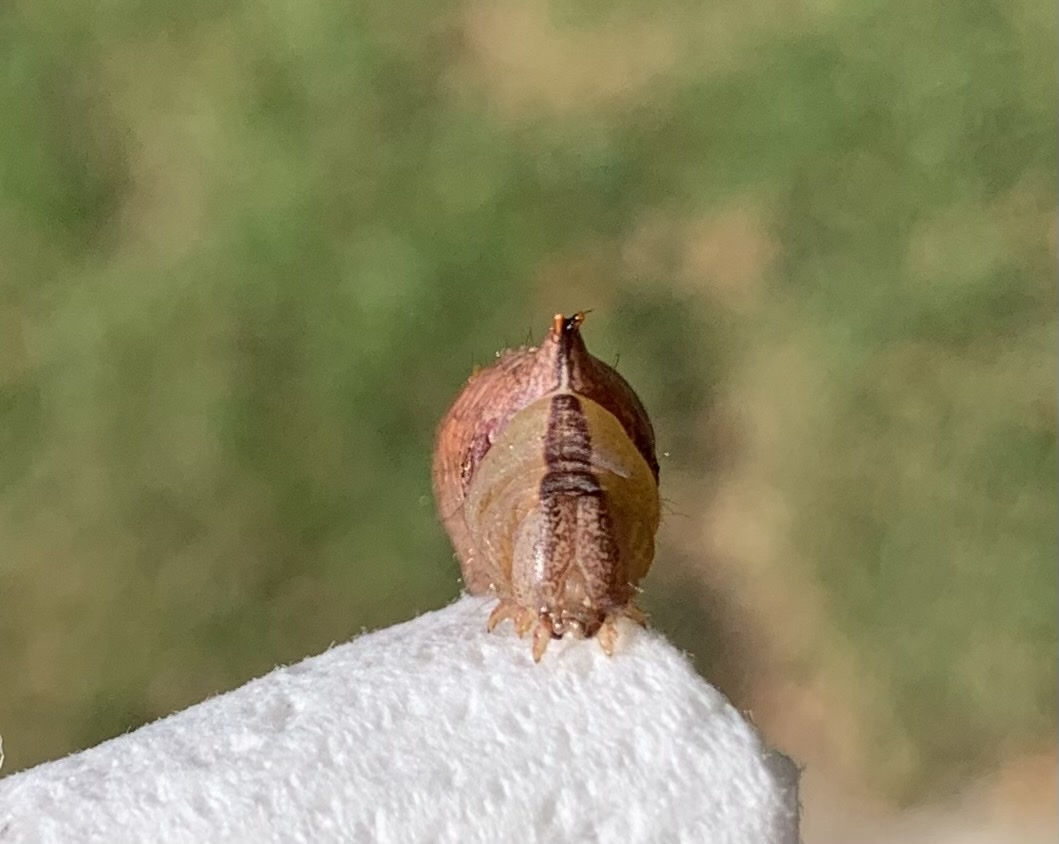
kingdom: Animalia
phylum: Arthropoda
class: Insecta
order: Lepidoptera
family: Notodontidae
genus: Schizura
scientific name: Schizura
